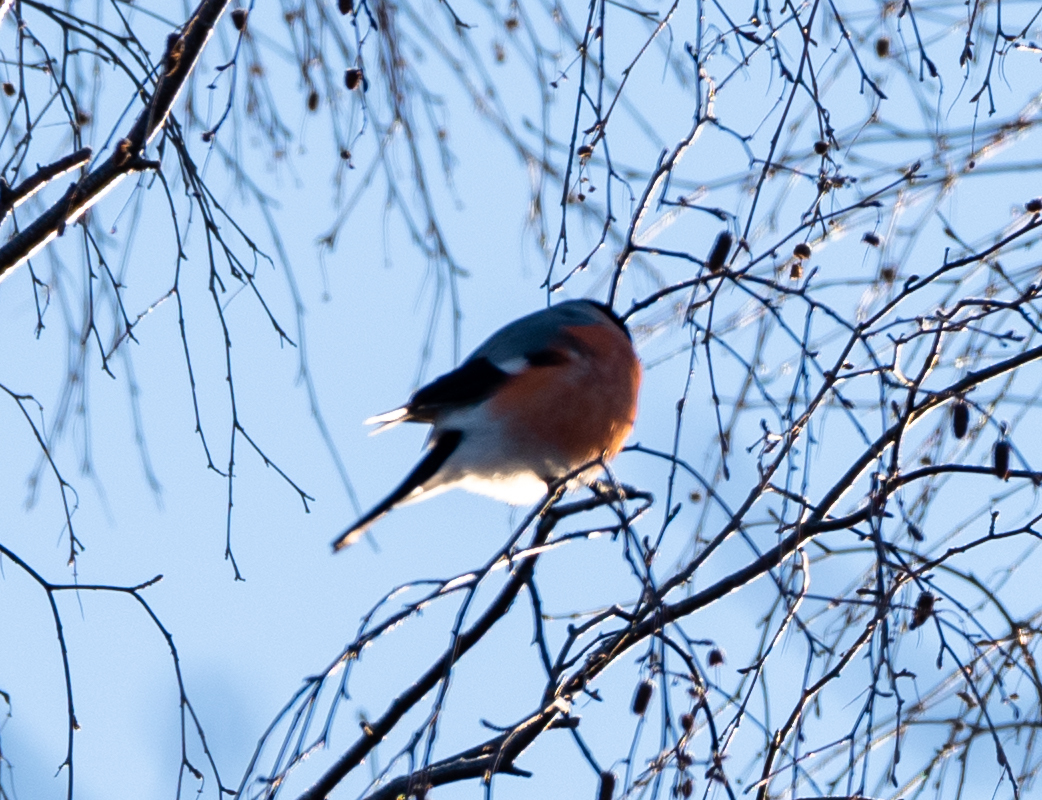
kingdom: Animalia
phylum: Chordata
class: Aves
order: Passeriformes
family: Fringillidae
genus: Pyrrhula
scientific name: Pyrrhula pyrrhula
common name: Eurasian bullfinch
